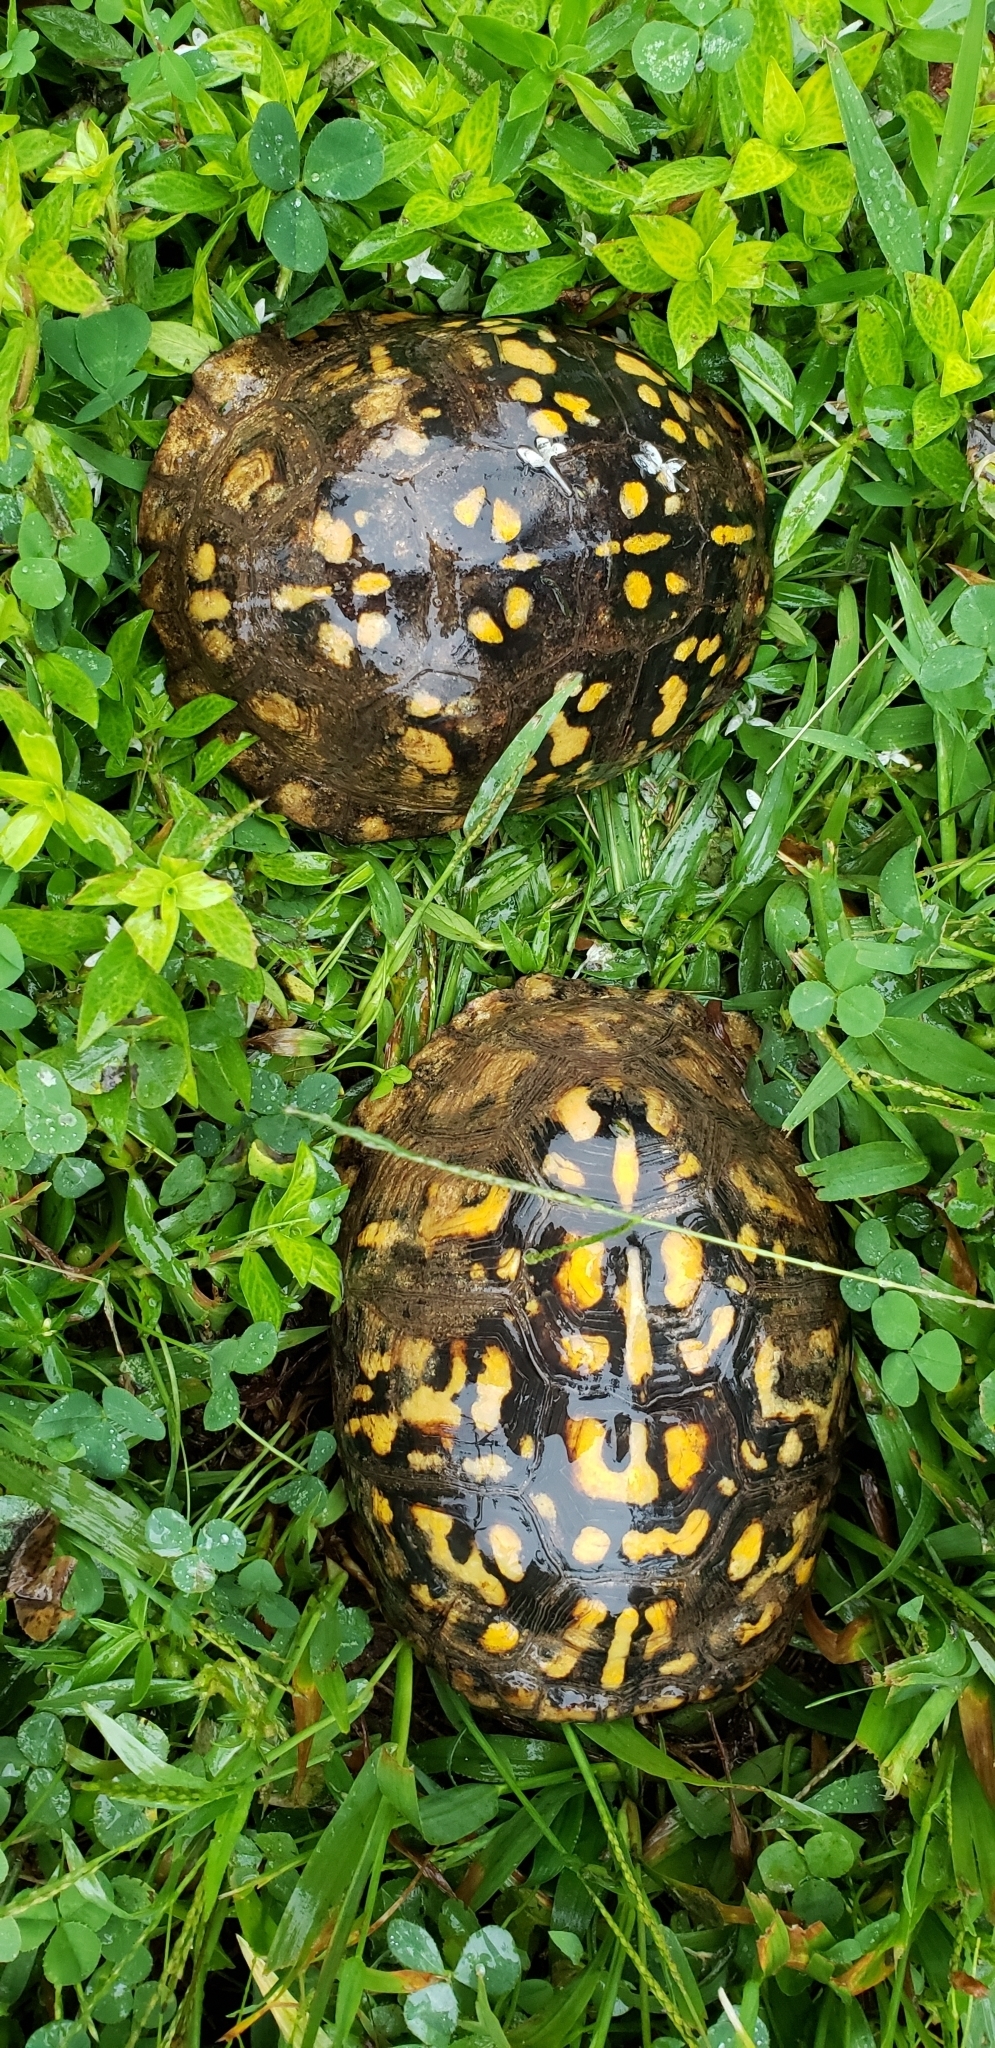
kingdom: Animalia
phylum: Chordata
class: Testudines
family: Emydidae
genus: Terrapene
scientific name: Terrapene carolina
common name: Common box turtle
